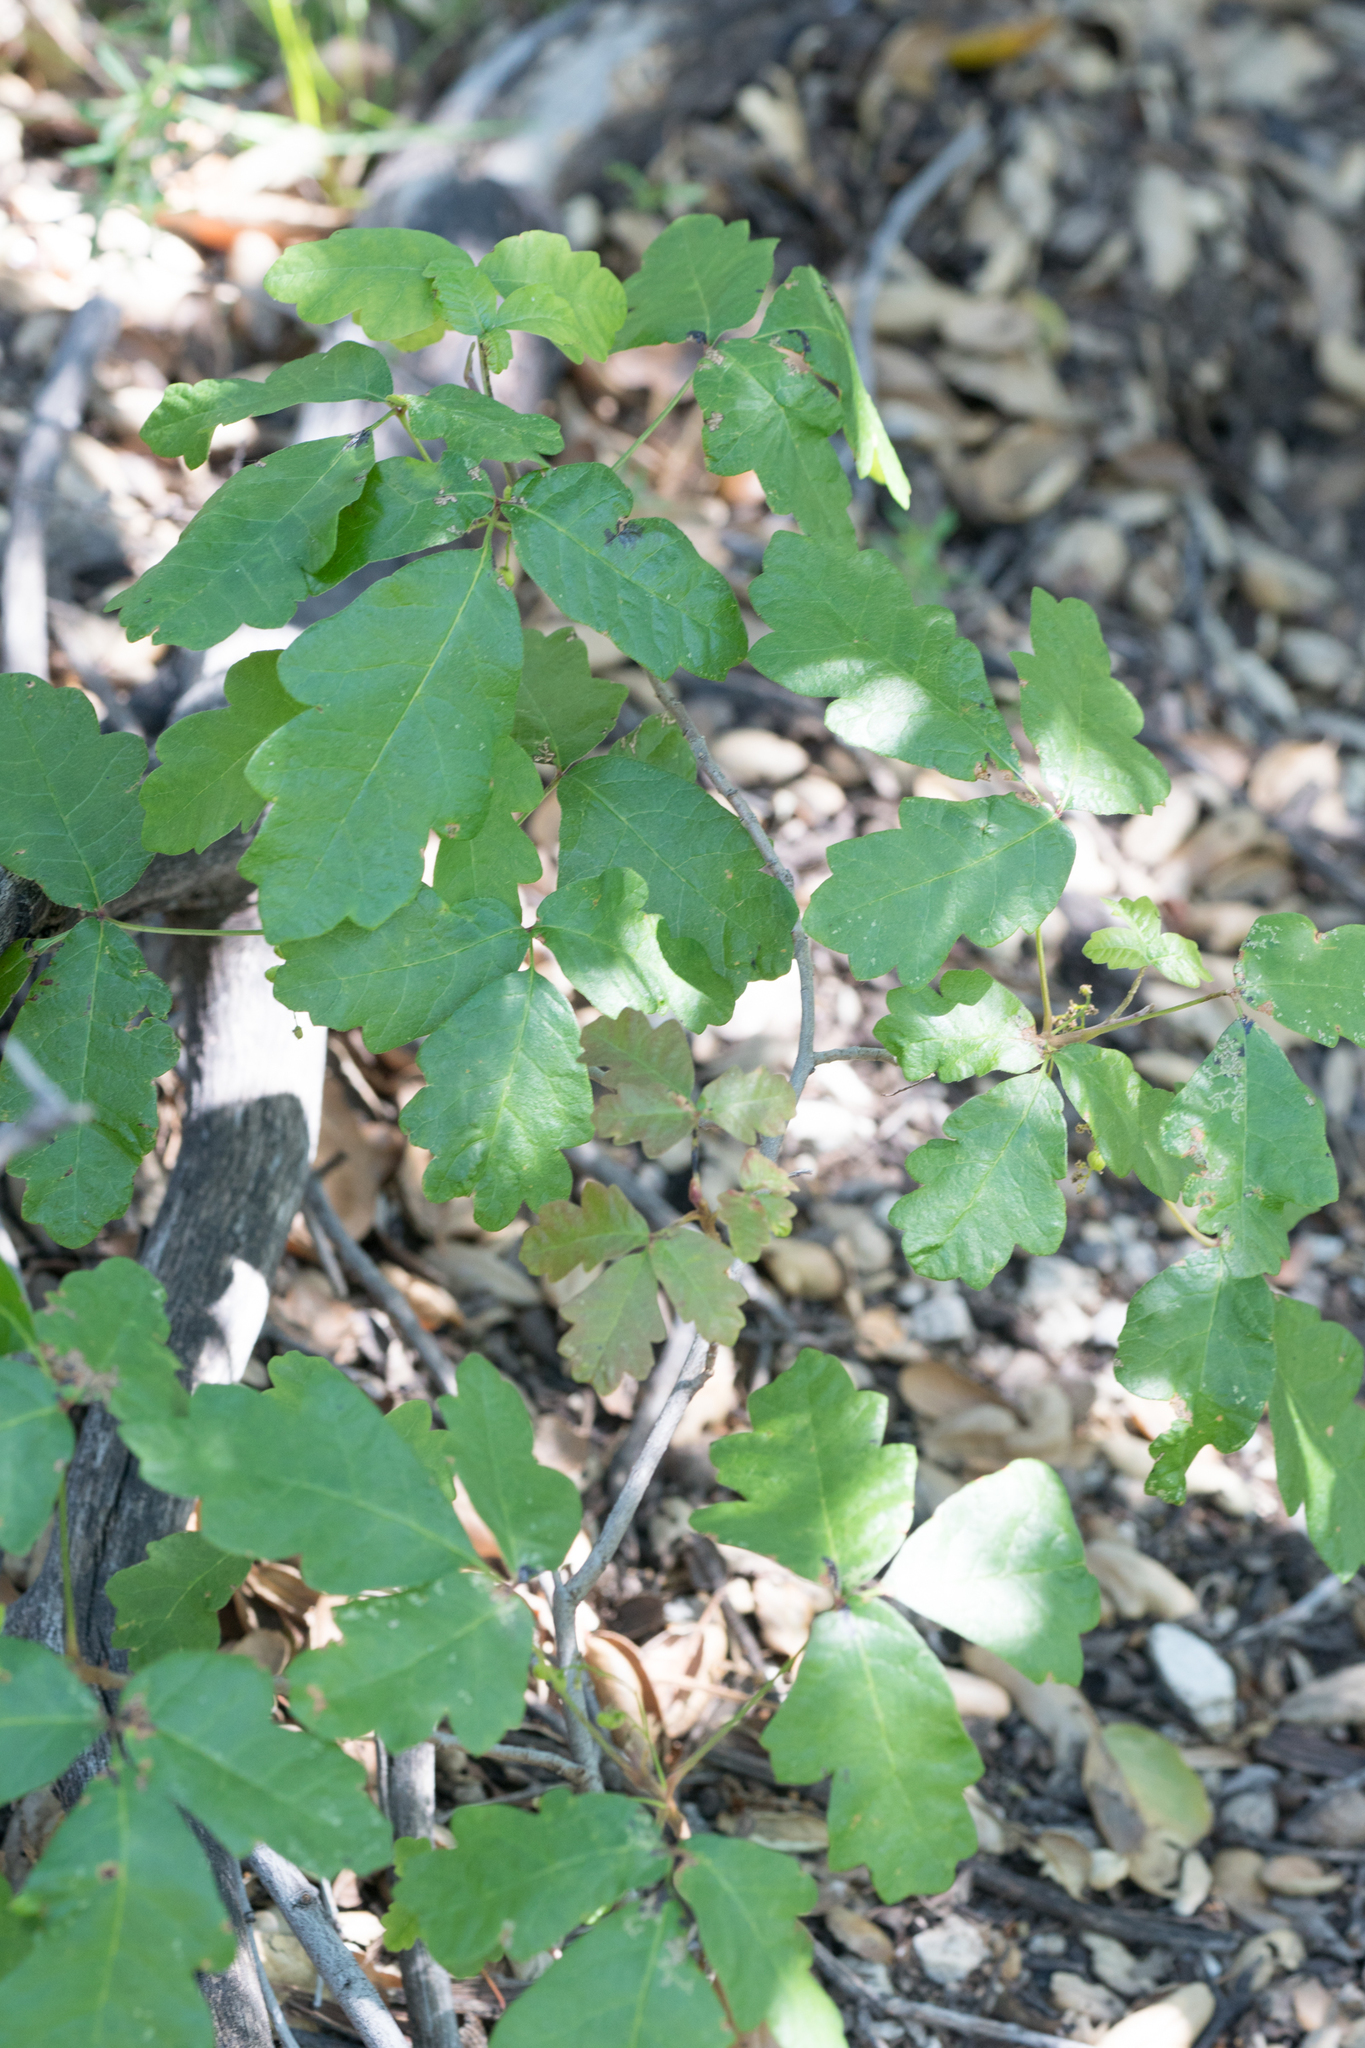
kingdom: Plantae
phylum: Tracheophyta
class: Magnoliopsida
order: Sapindales
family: Anacardiaceae
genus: Toxicodendron
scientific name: Toxicodendron diversilobum
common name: Pacific poison-oak
